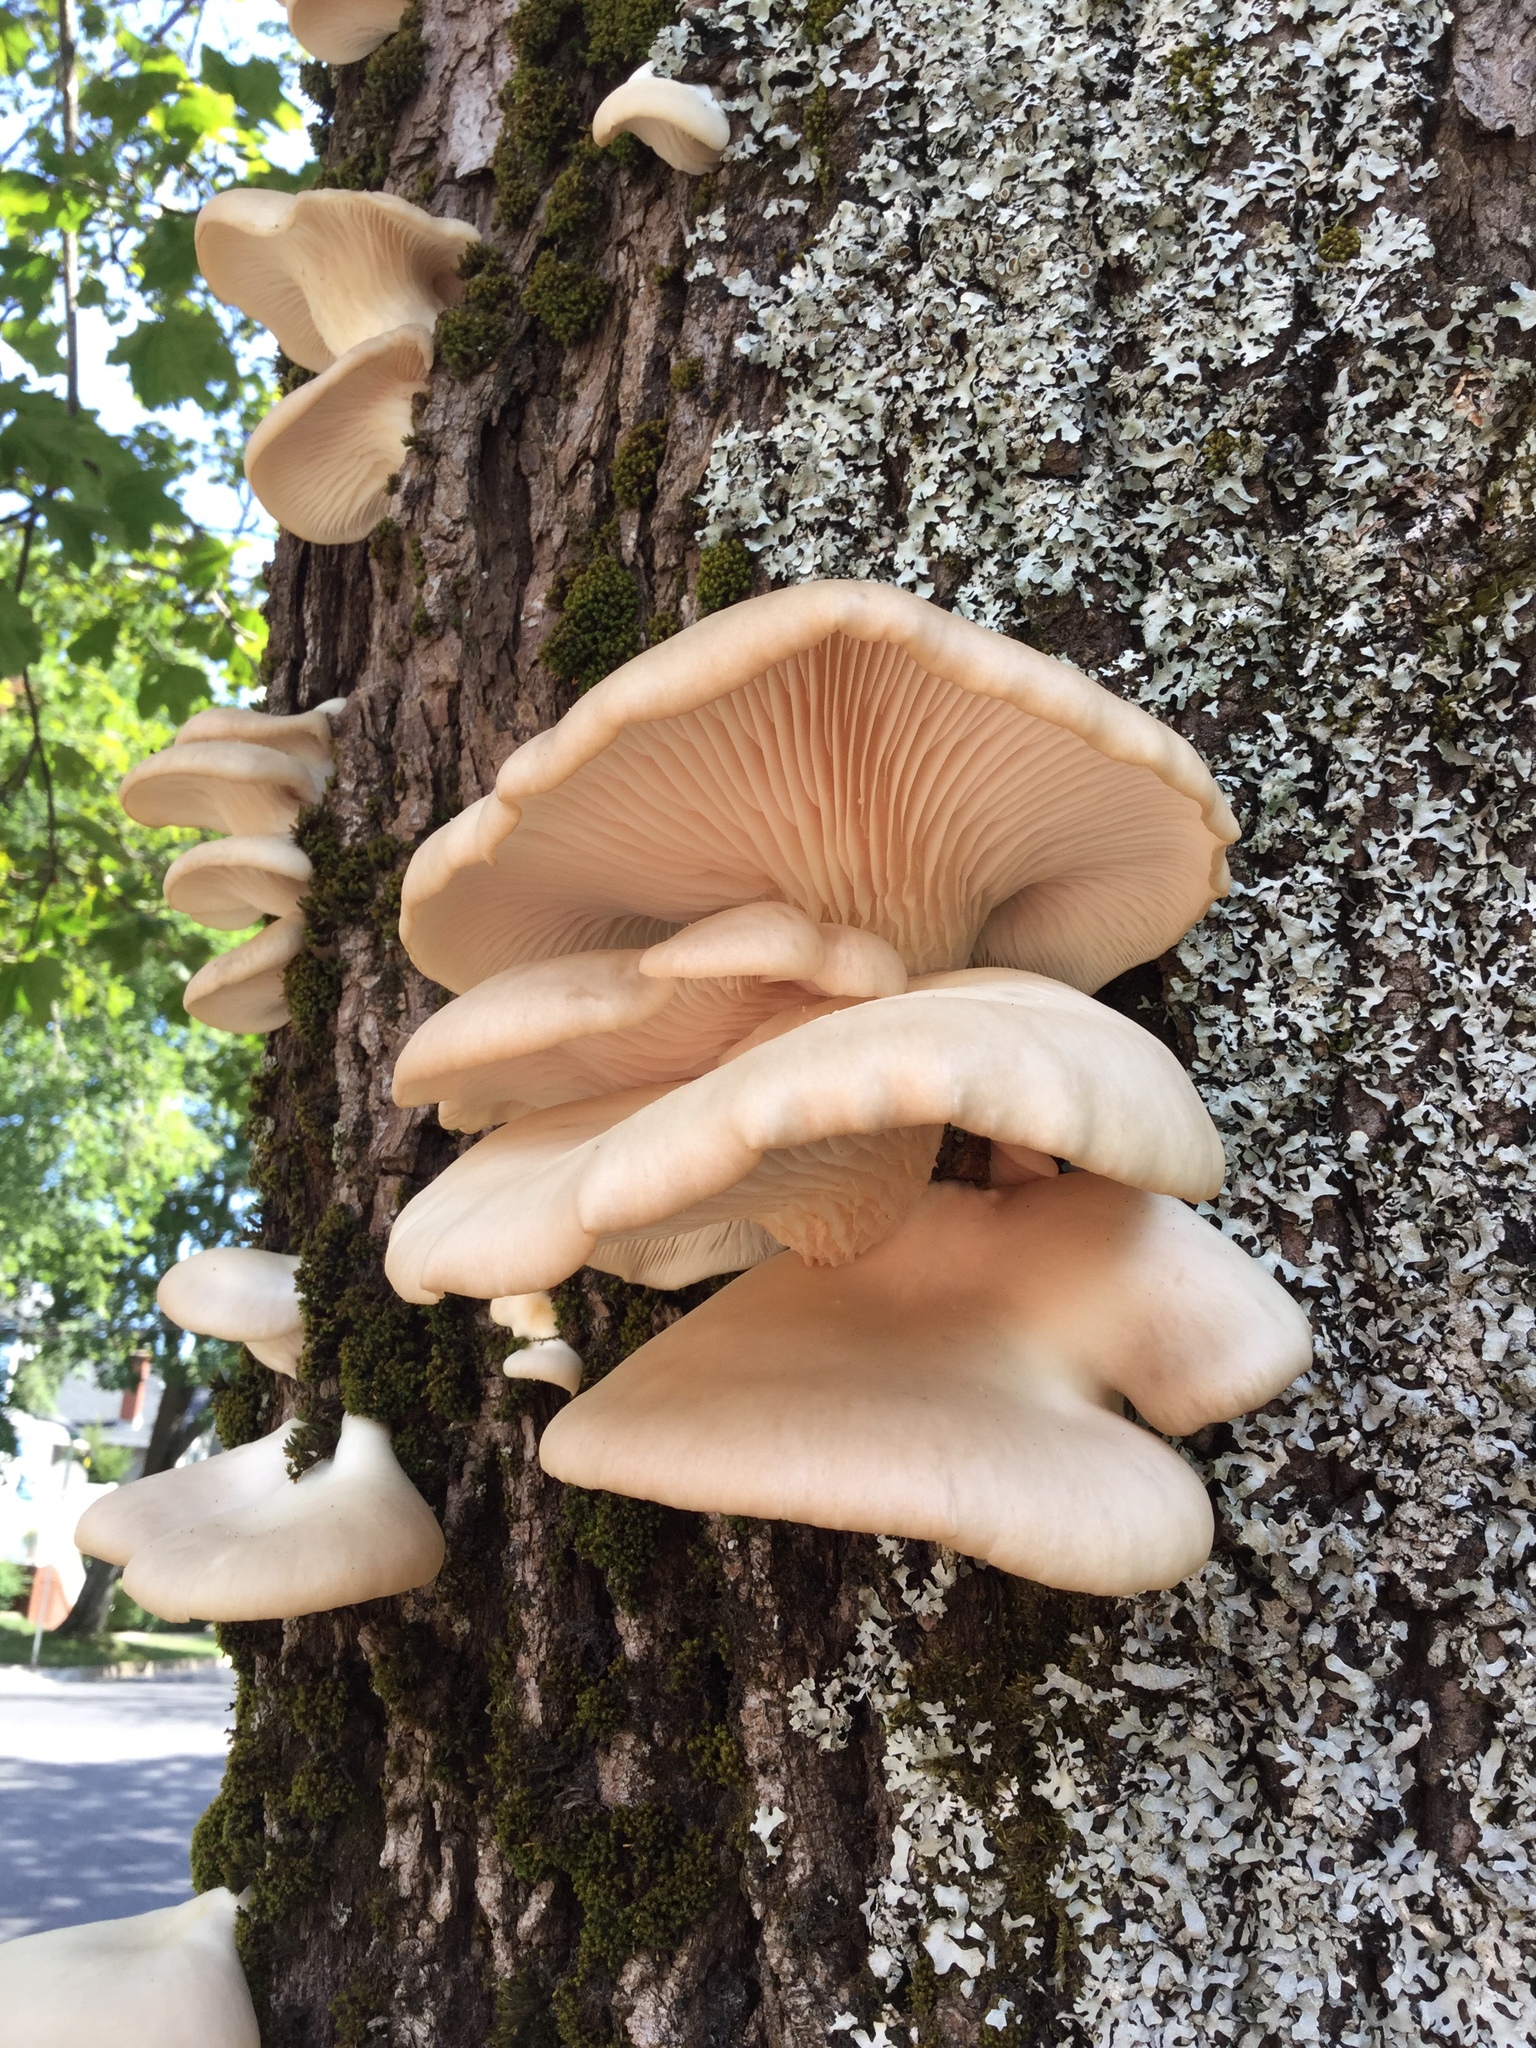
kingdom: Fungi
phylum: Basidiomycota
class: Agaricomycetes
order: Agaricales
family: Pleurotaceae
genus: Pleurotus
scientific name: Pleurotus ostreatus
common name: Oyster mushroom
